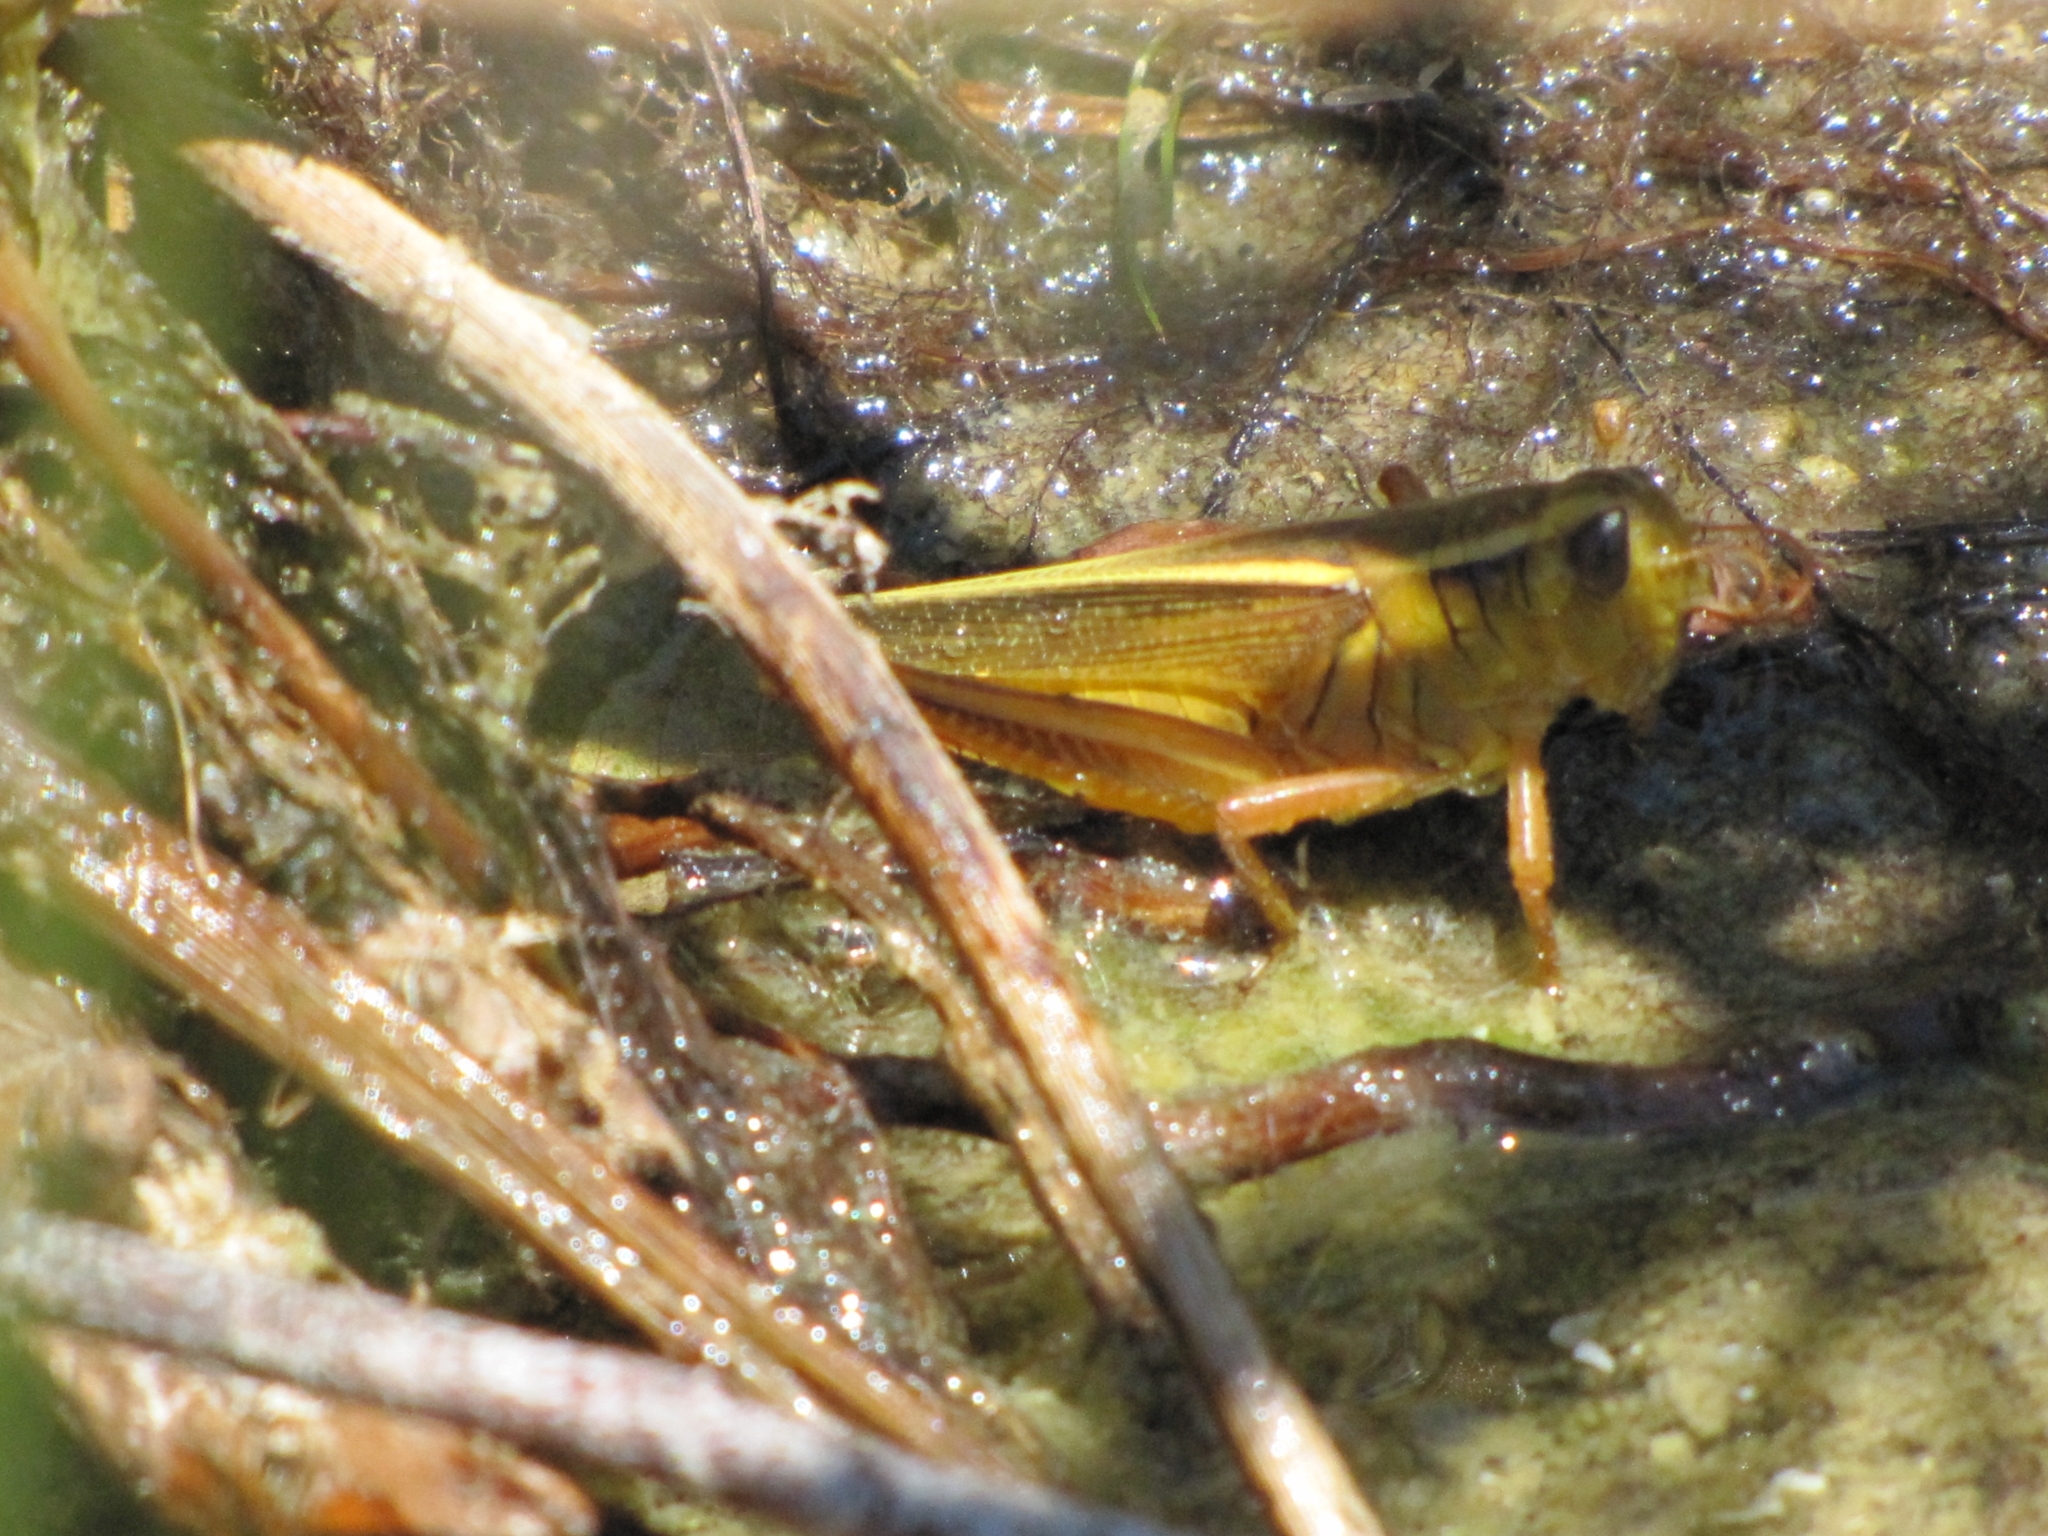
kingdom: Animalia
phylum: Arthropoda
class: Insecta
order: Orthoptera
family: Acrididae
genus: Melanoplus
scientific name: Melanoplus bivittatus
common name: Two-striped grasshopper
